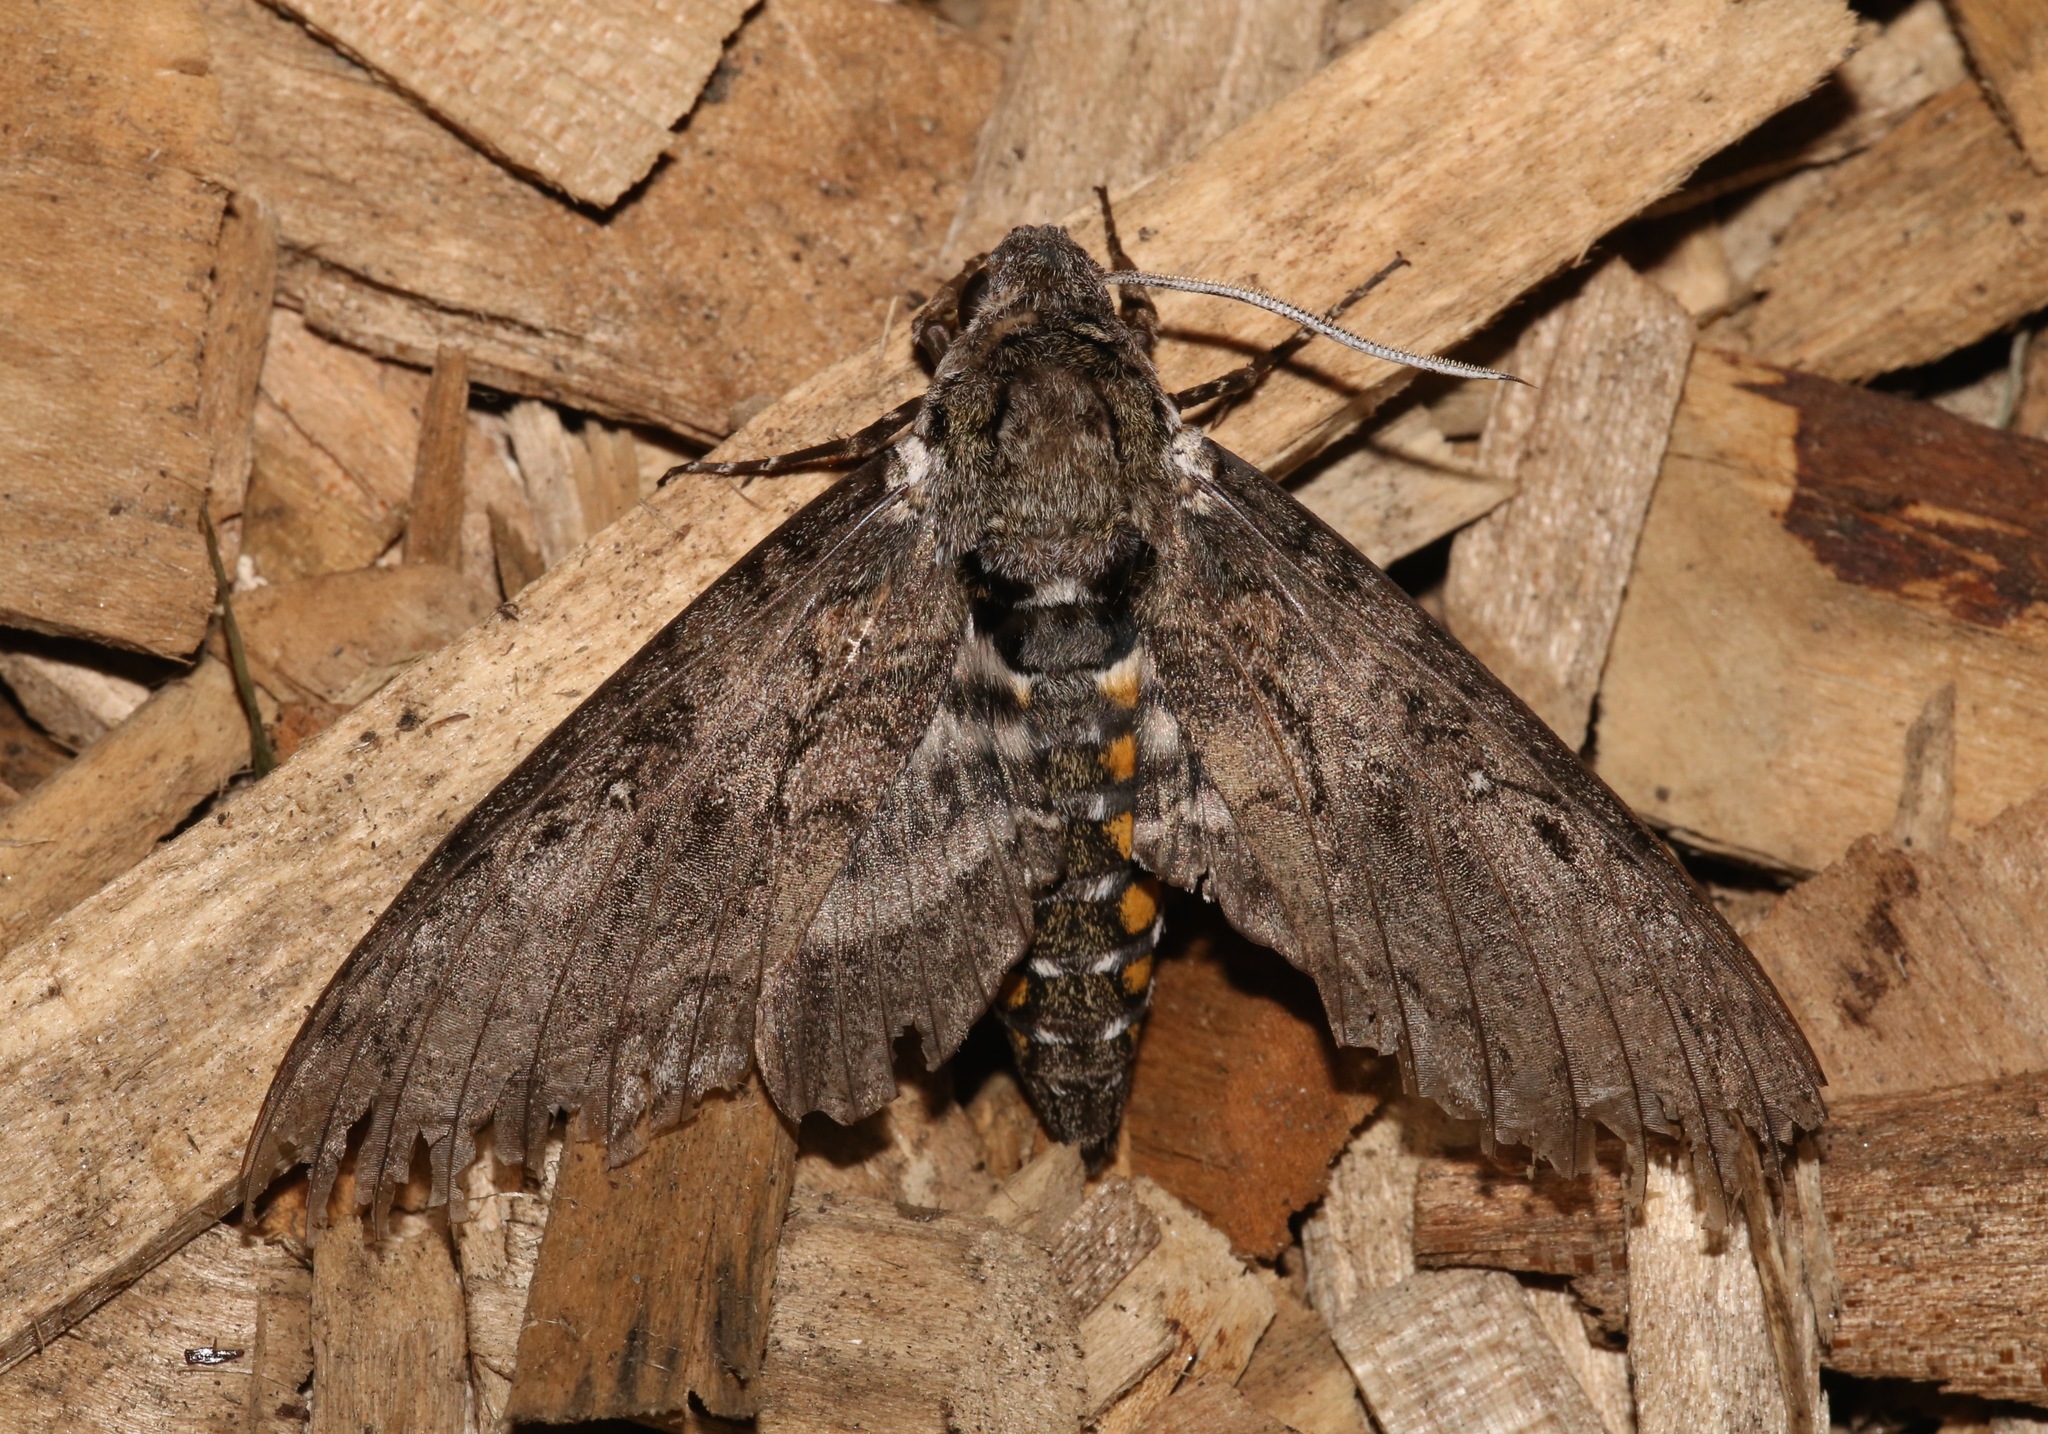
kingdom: Animalia
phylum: Arthropoda
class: Insecta
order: Lepidoptera
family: Sphingidae
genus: Manduca
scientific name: Manduca sexta
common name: Carolina sphinx
